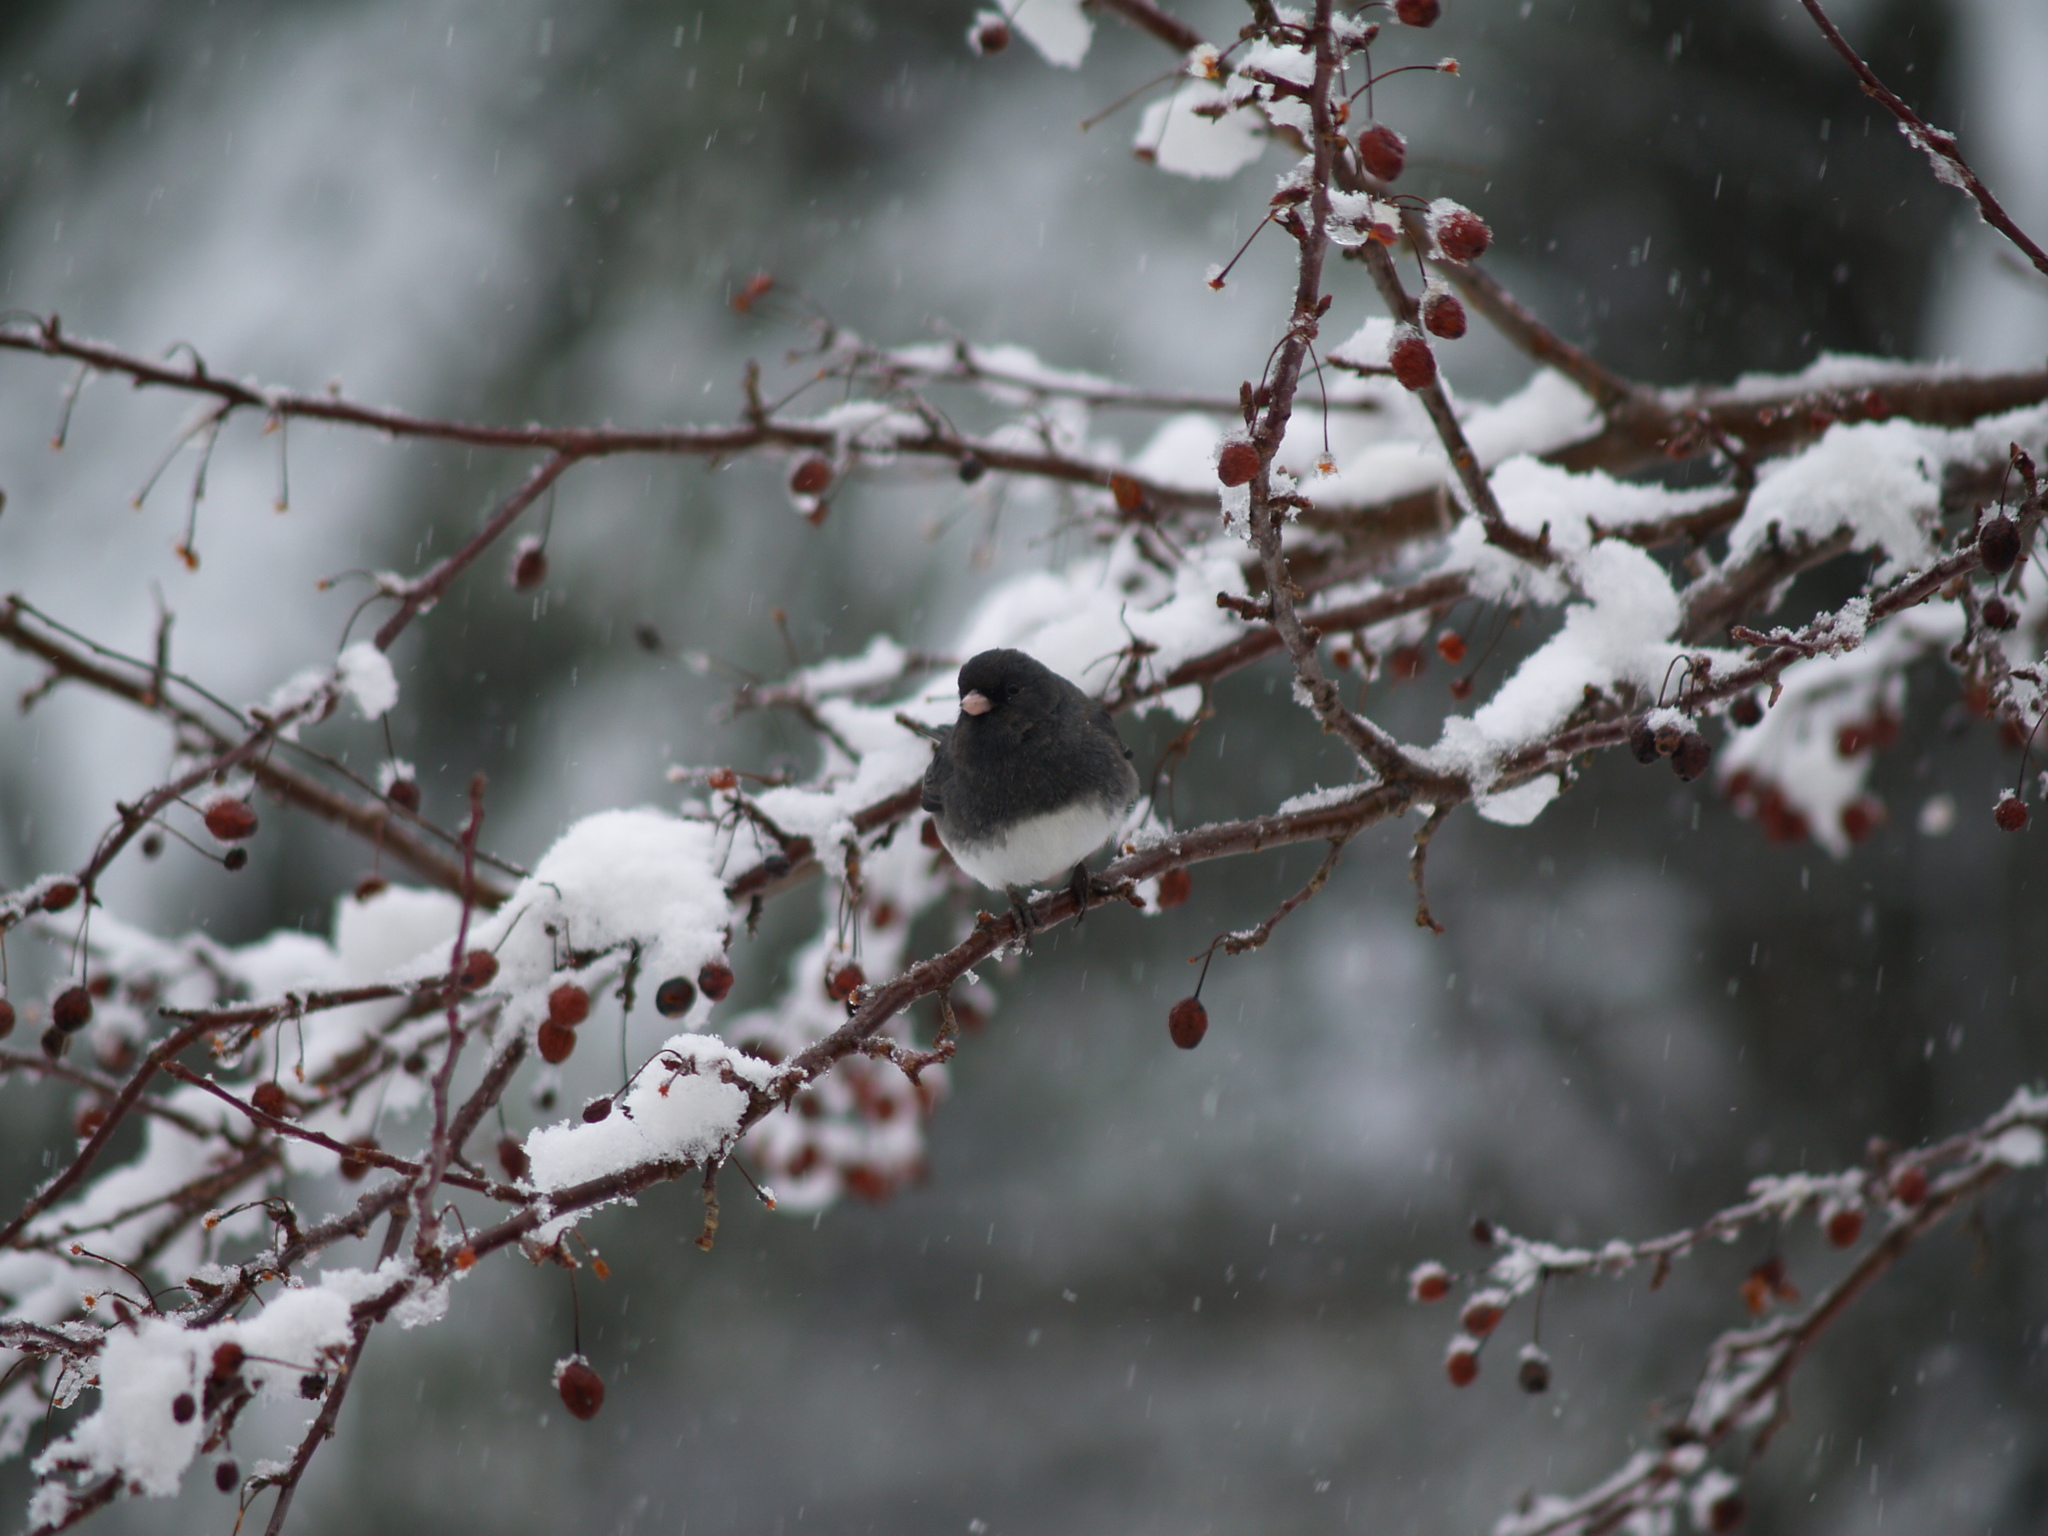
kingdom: Animalia
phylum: Chordata
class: Aves
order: Passeriformes
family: Passerellidae
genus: Junco
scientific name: Junco hyemalis
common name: Dark-eyed junco
